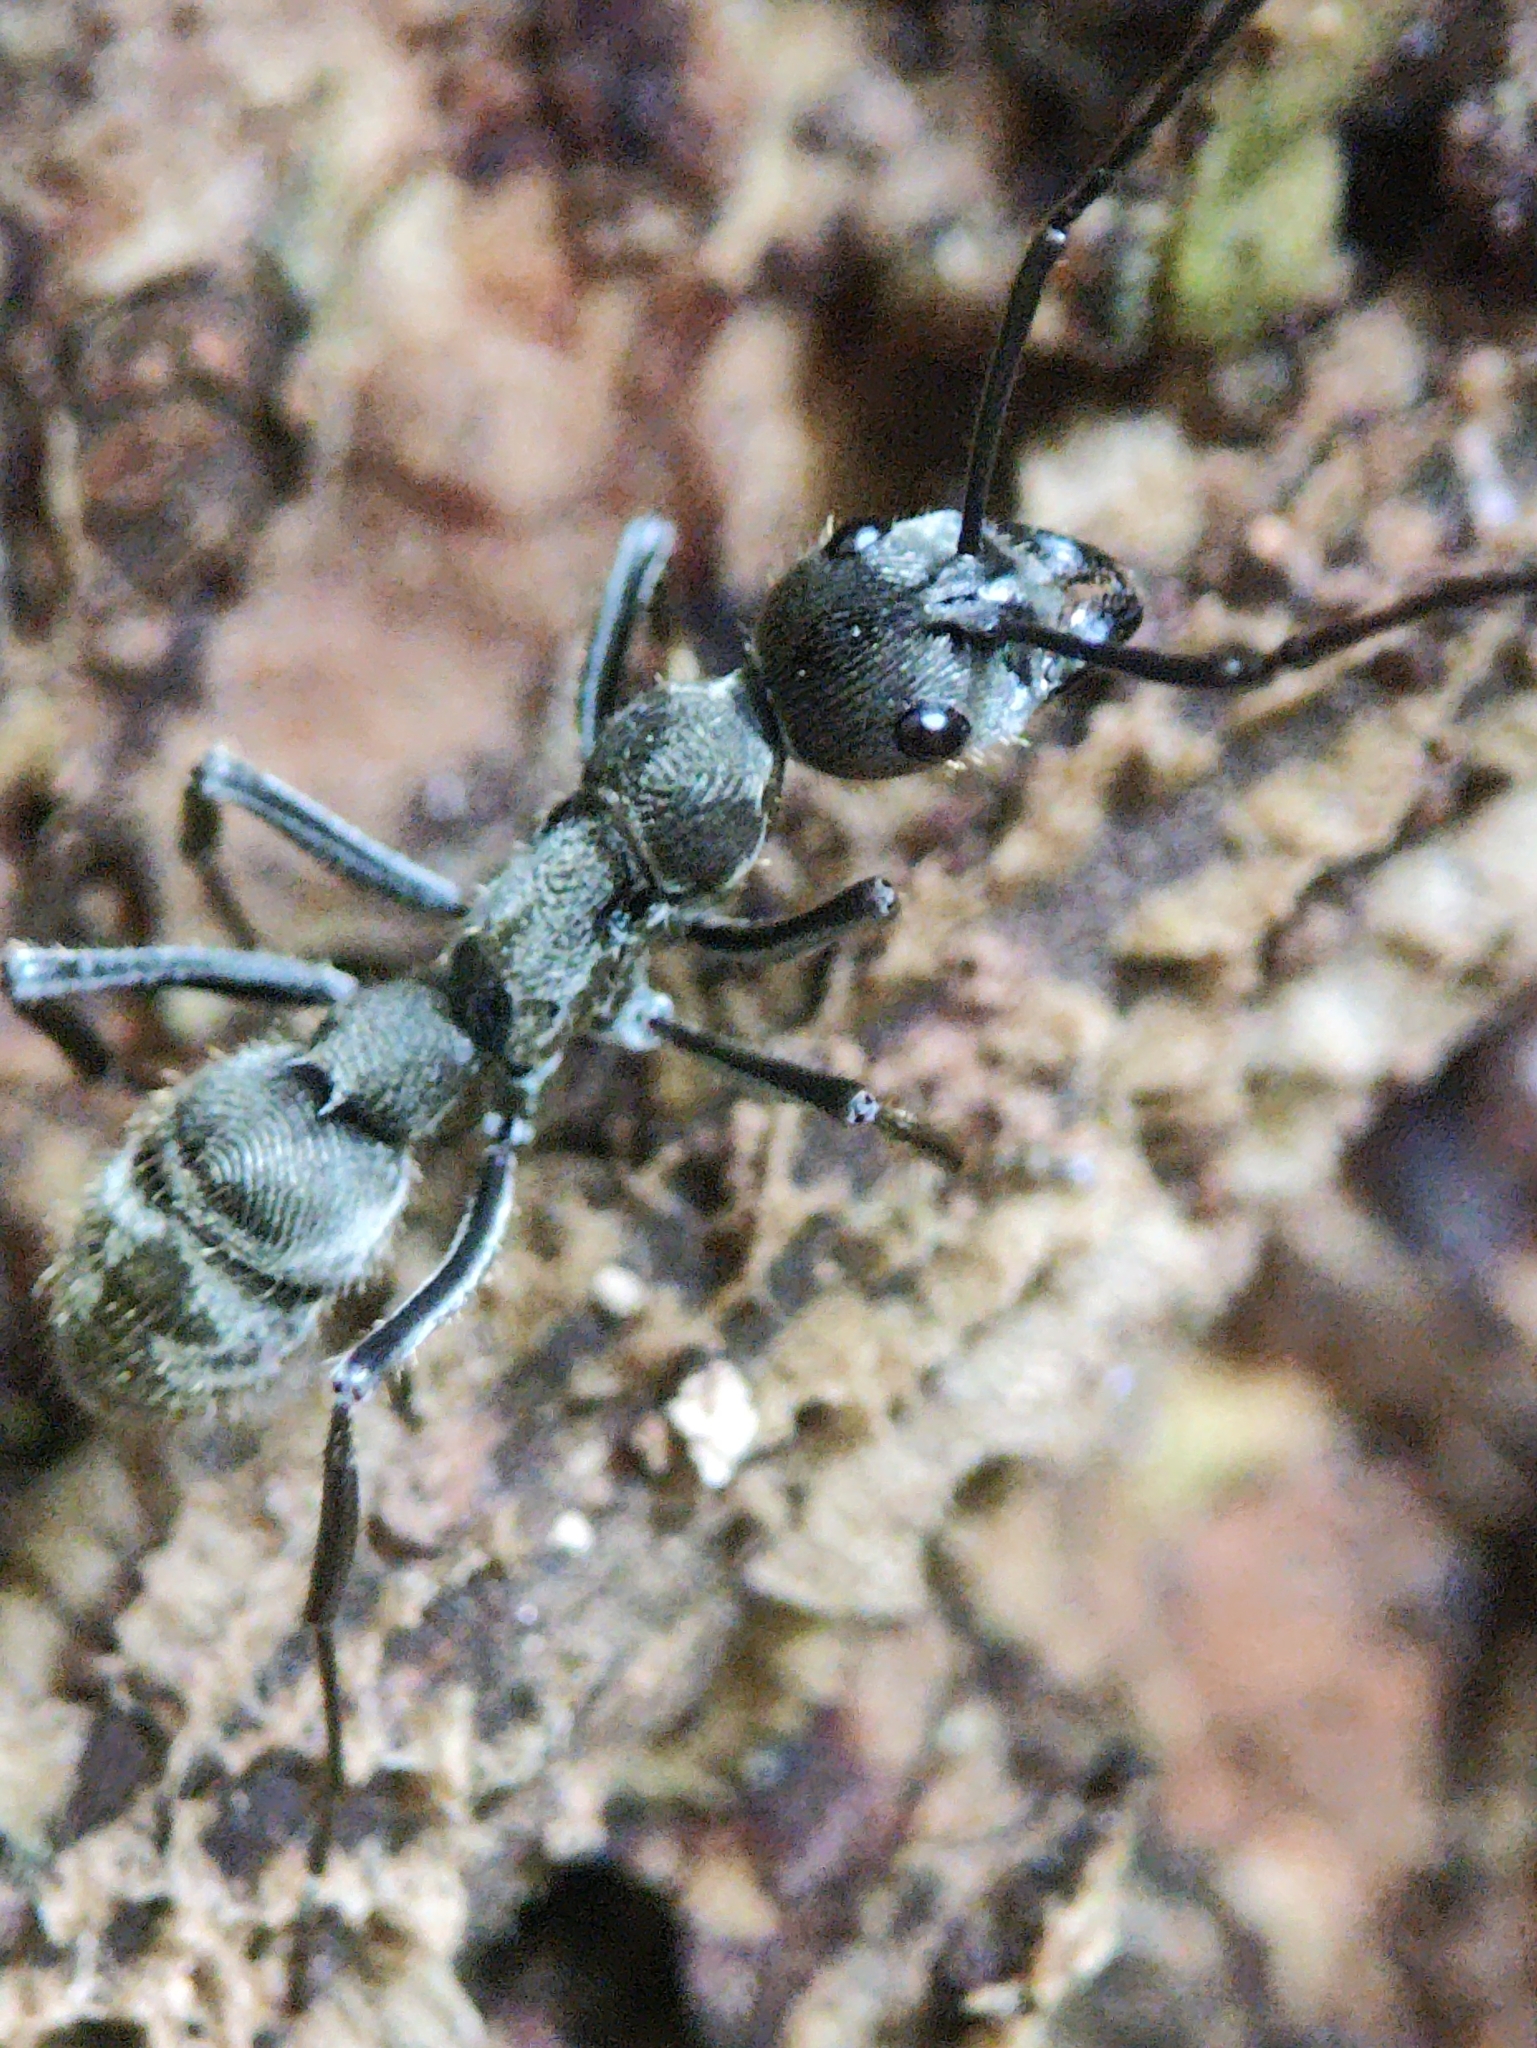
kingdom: Animalia
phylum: Arthropoda
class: Insecta
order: Hymenoptera
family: Formicidae
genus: Diacamma
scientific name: Diacamma rugosum
